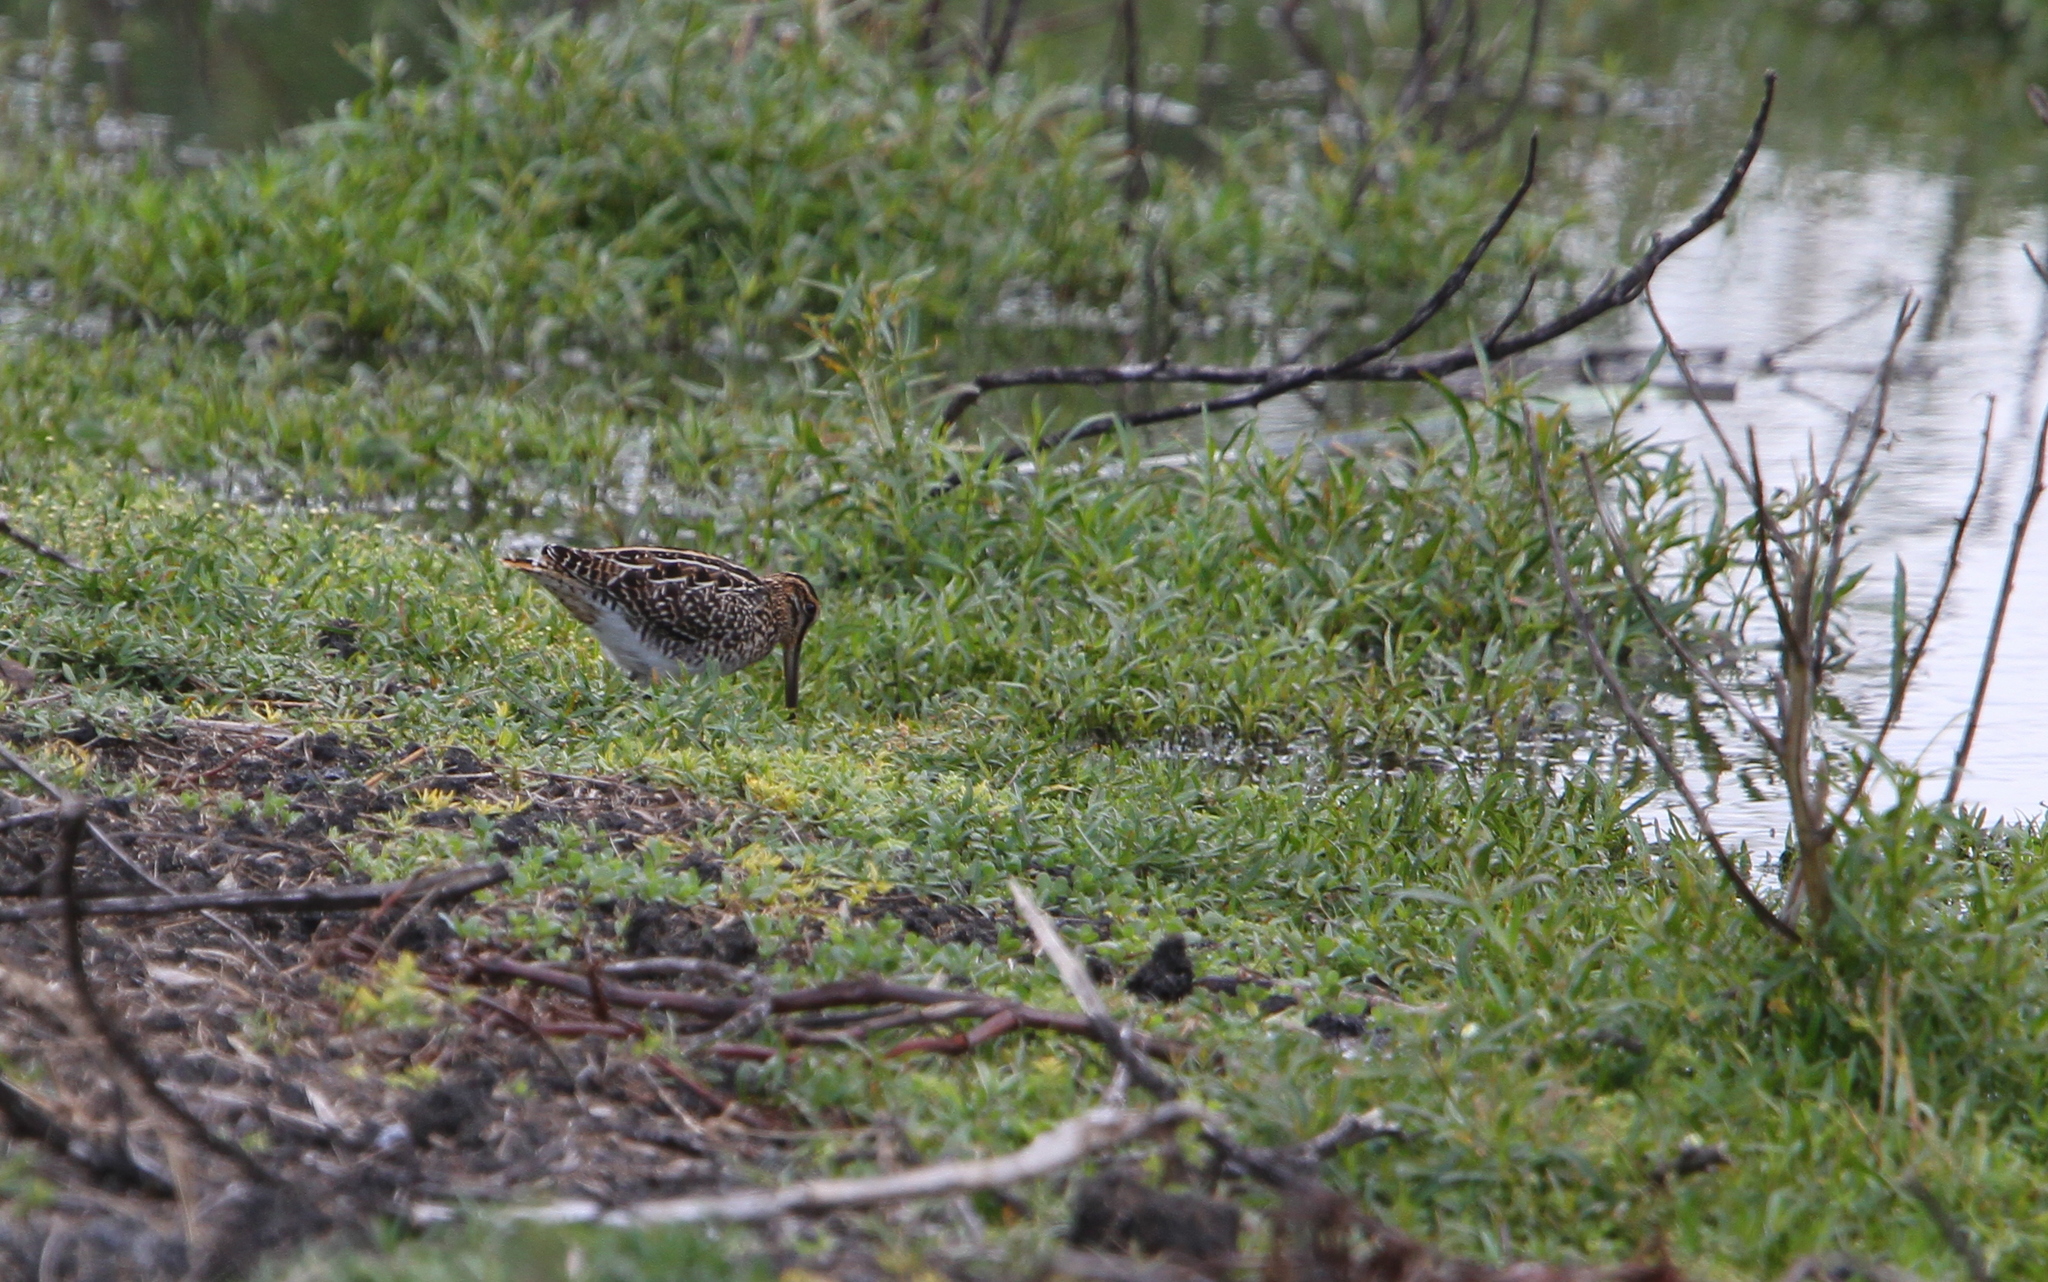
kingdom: Animalia
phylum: Chordata
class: Aves
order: Charadriiformes
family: Scolopacidae
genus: Gallinago
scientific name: Gallinago nigripennis
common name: African snipe
